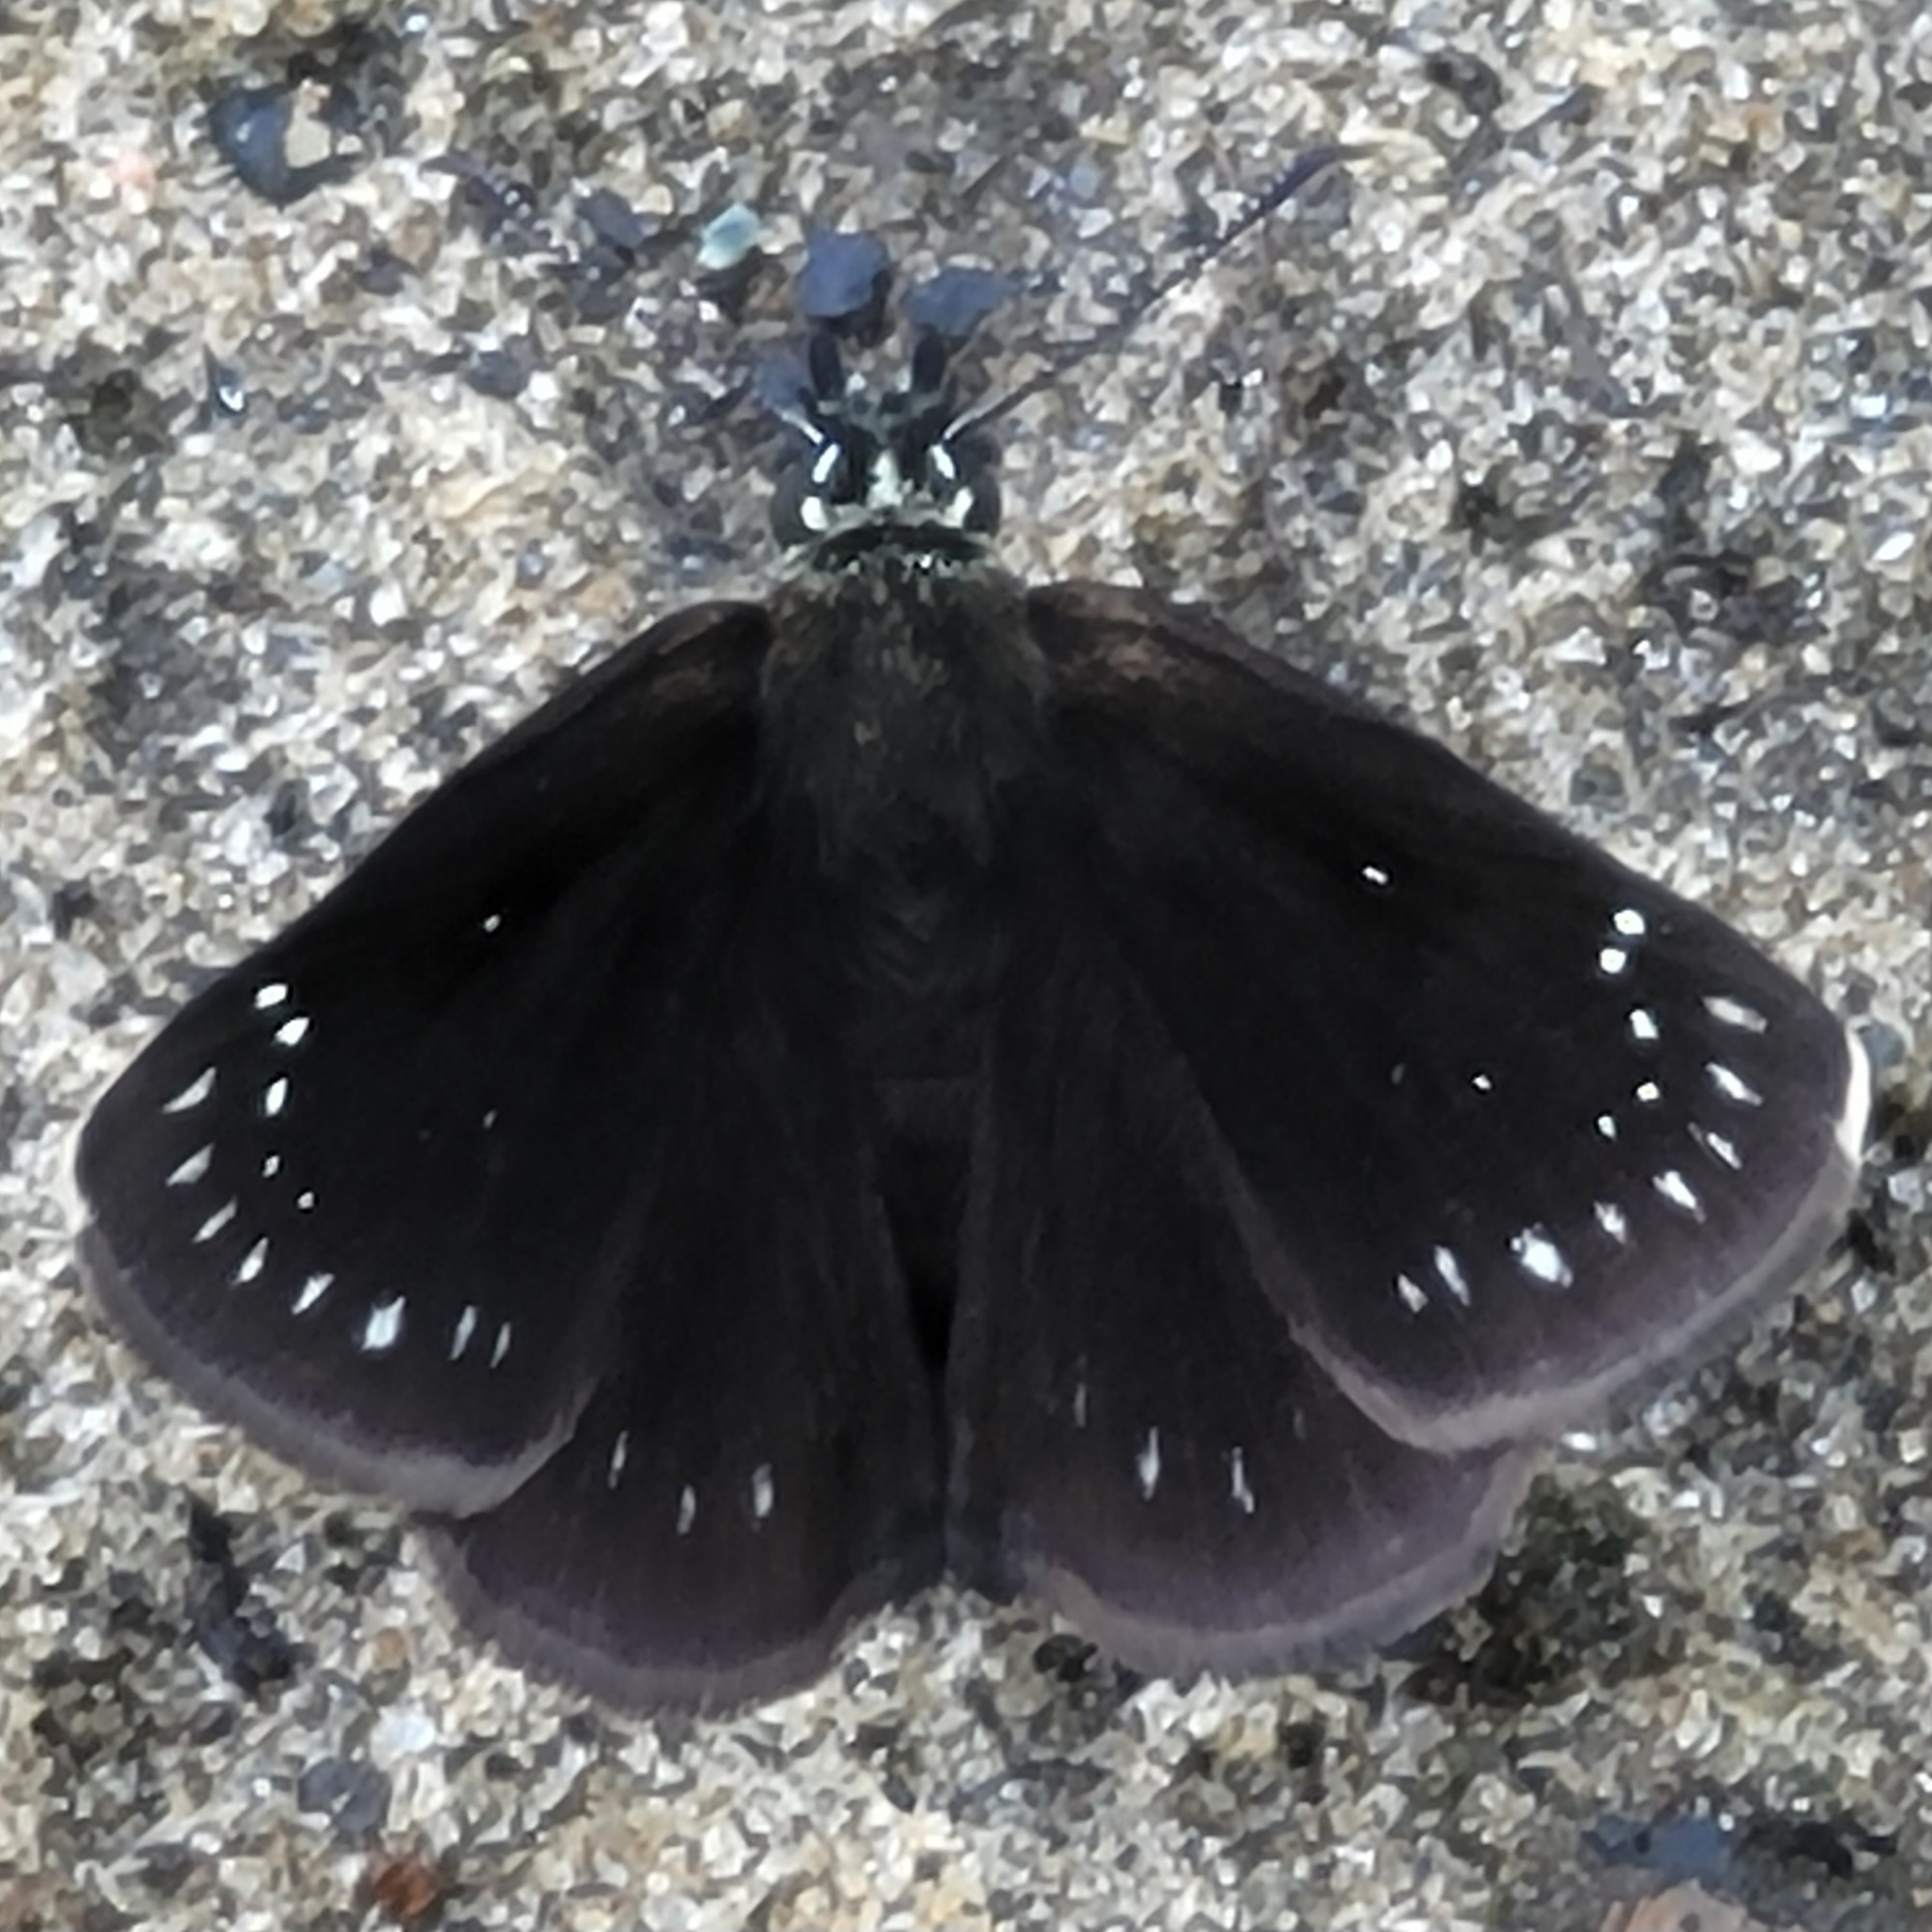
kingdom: Animalia
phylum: Arthropoda
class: Insecta
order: Lepidoptera
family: Hesperiidae
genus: Pholisora
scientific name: Pholisora catullus
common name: Common sootywing
